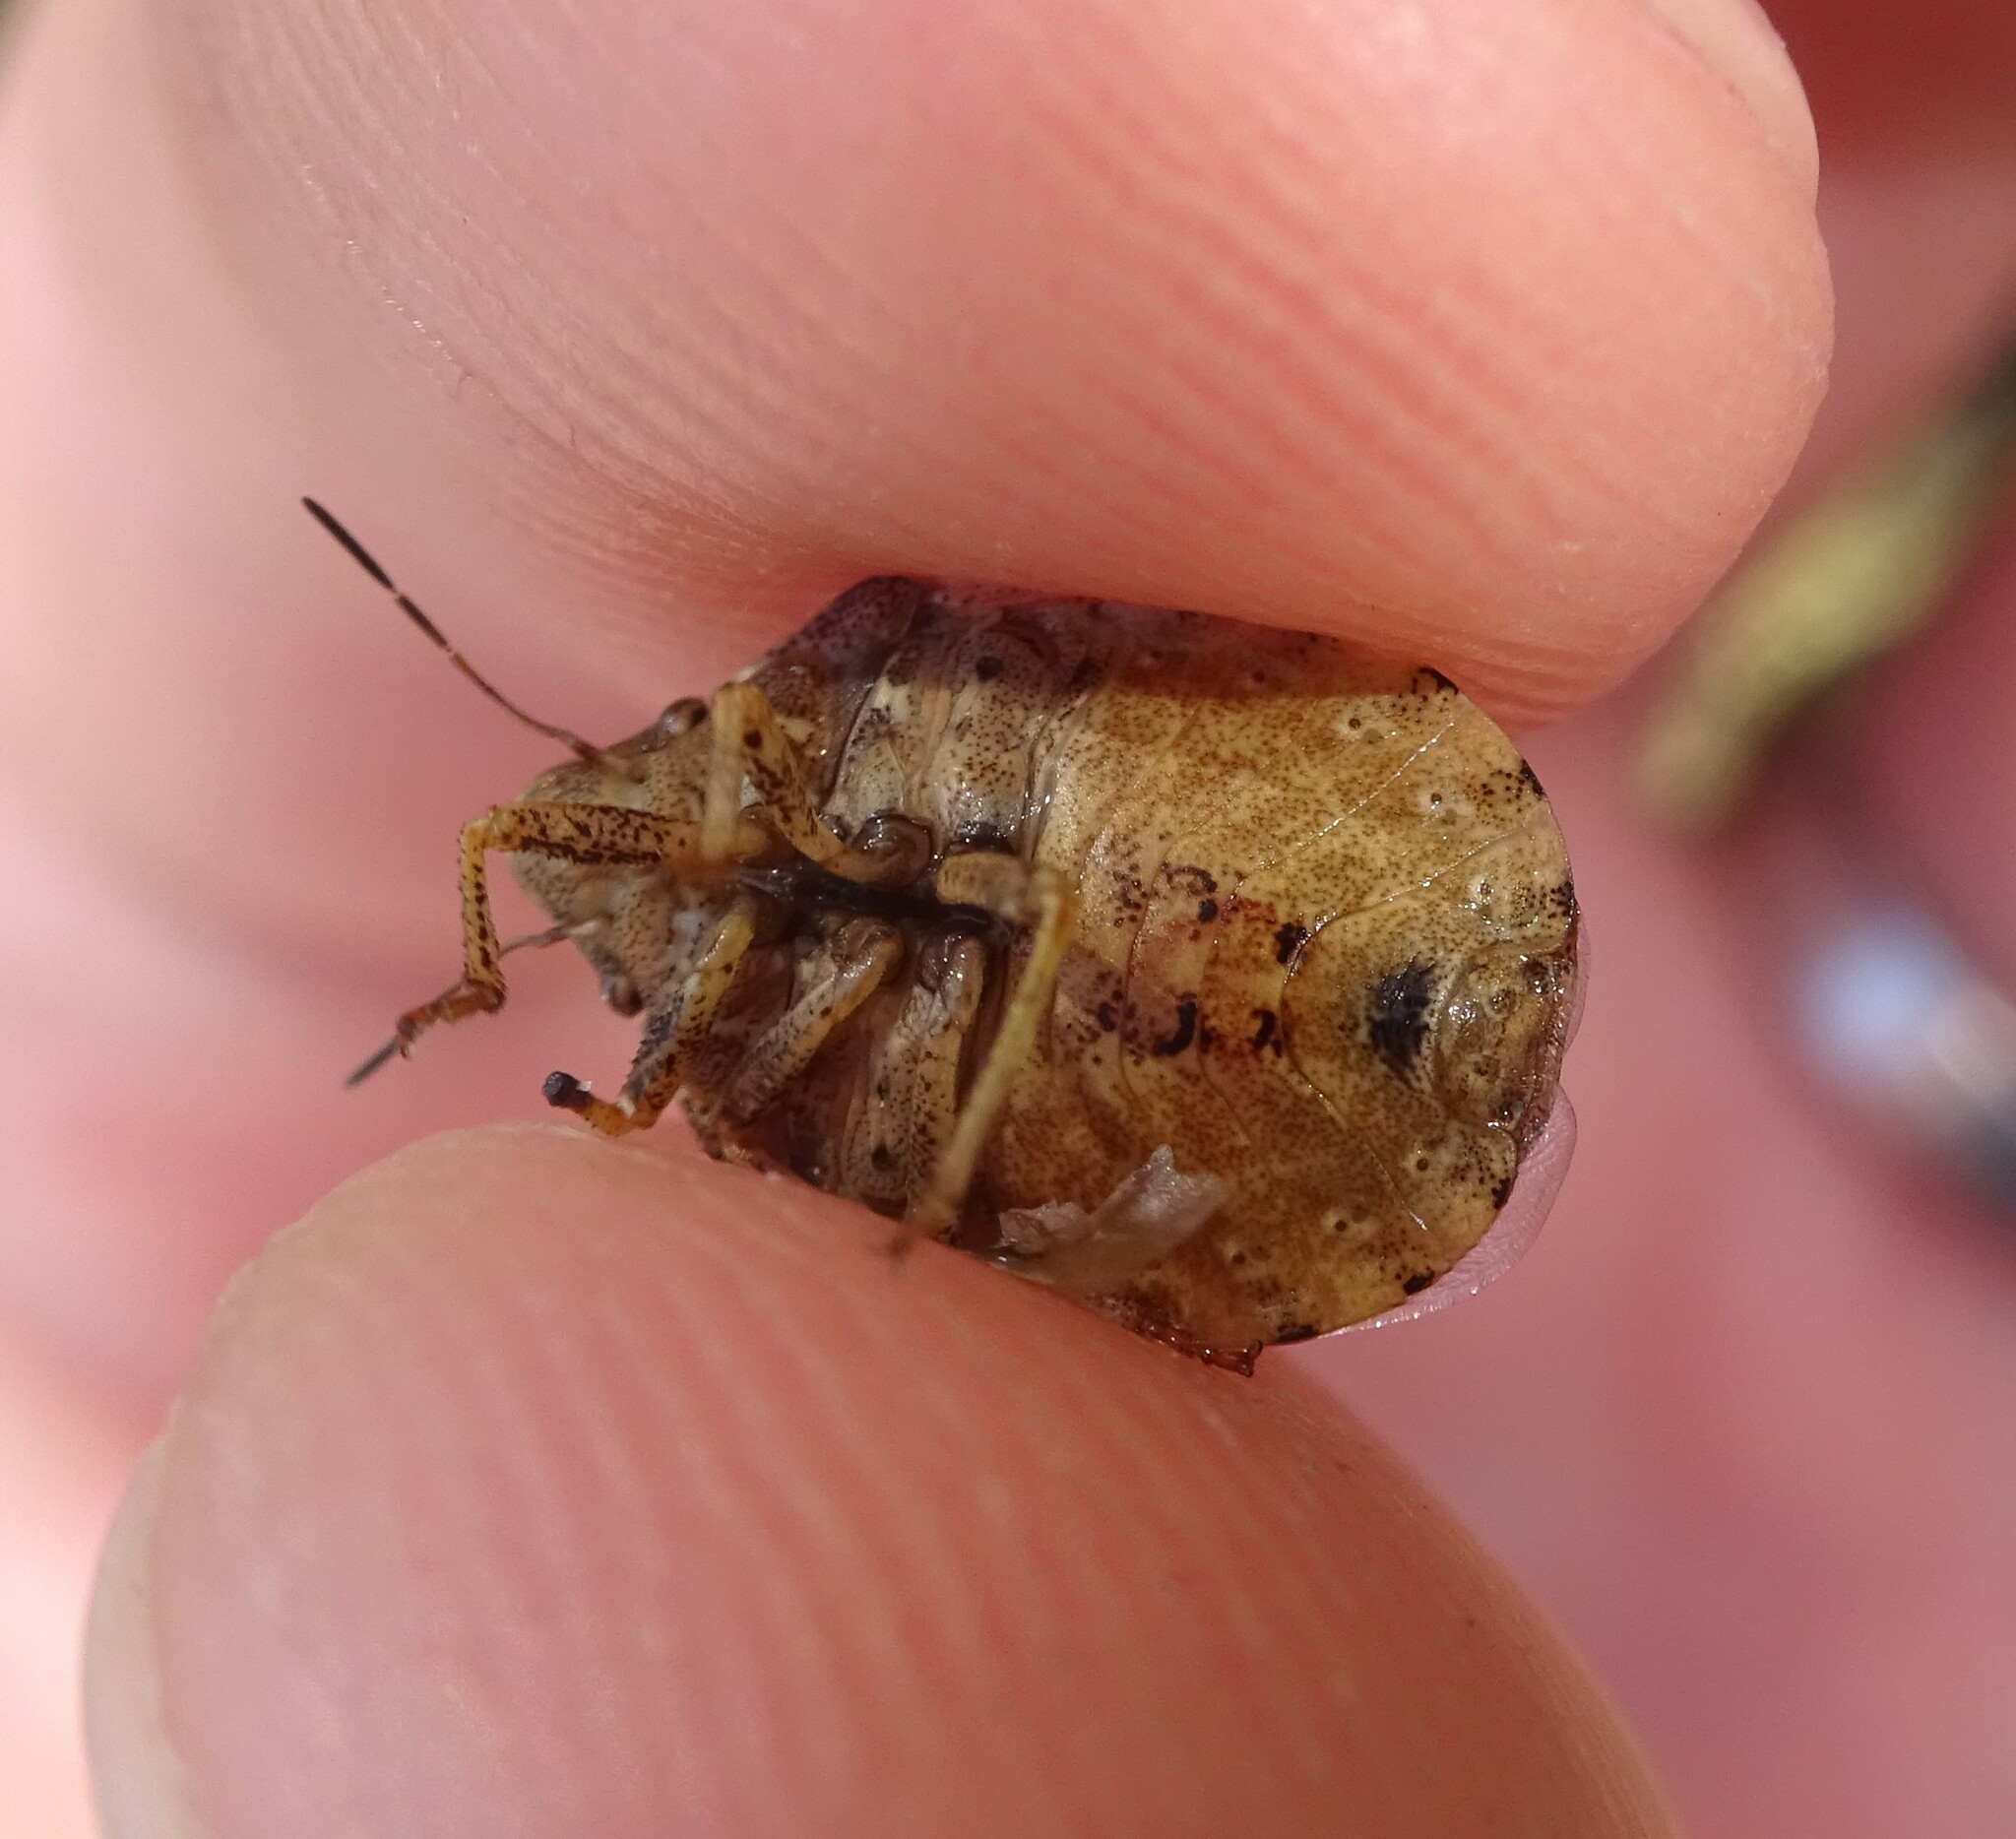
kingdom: Animalia
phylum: Arthropoda
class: Insecta
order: Hemiptera
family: Scutelleridae
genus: Eurygaster
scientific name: Eurygaster maura
